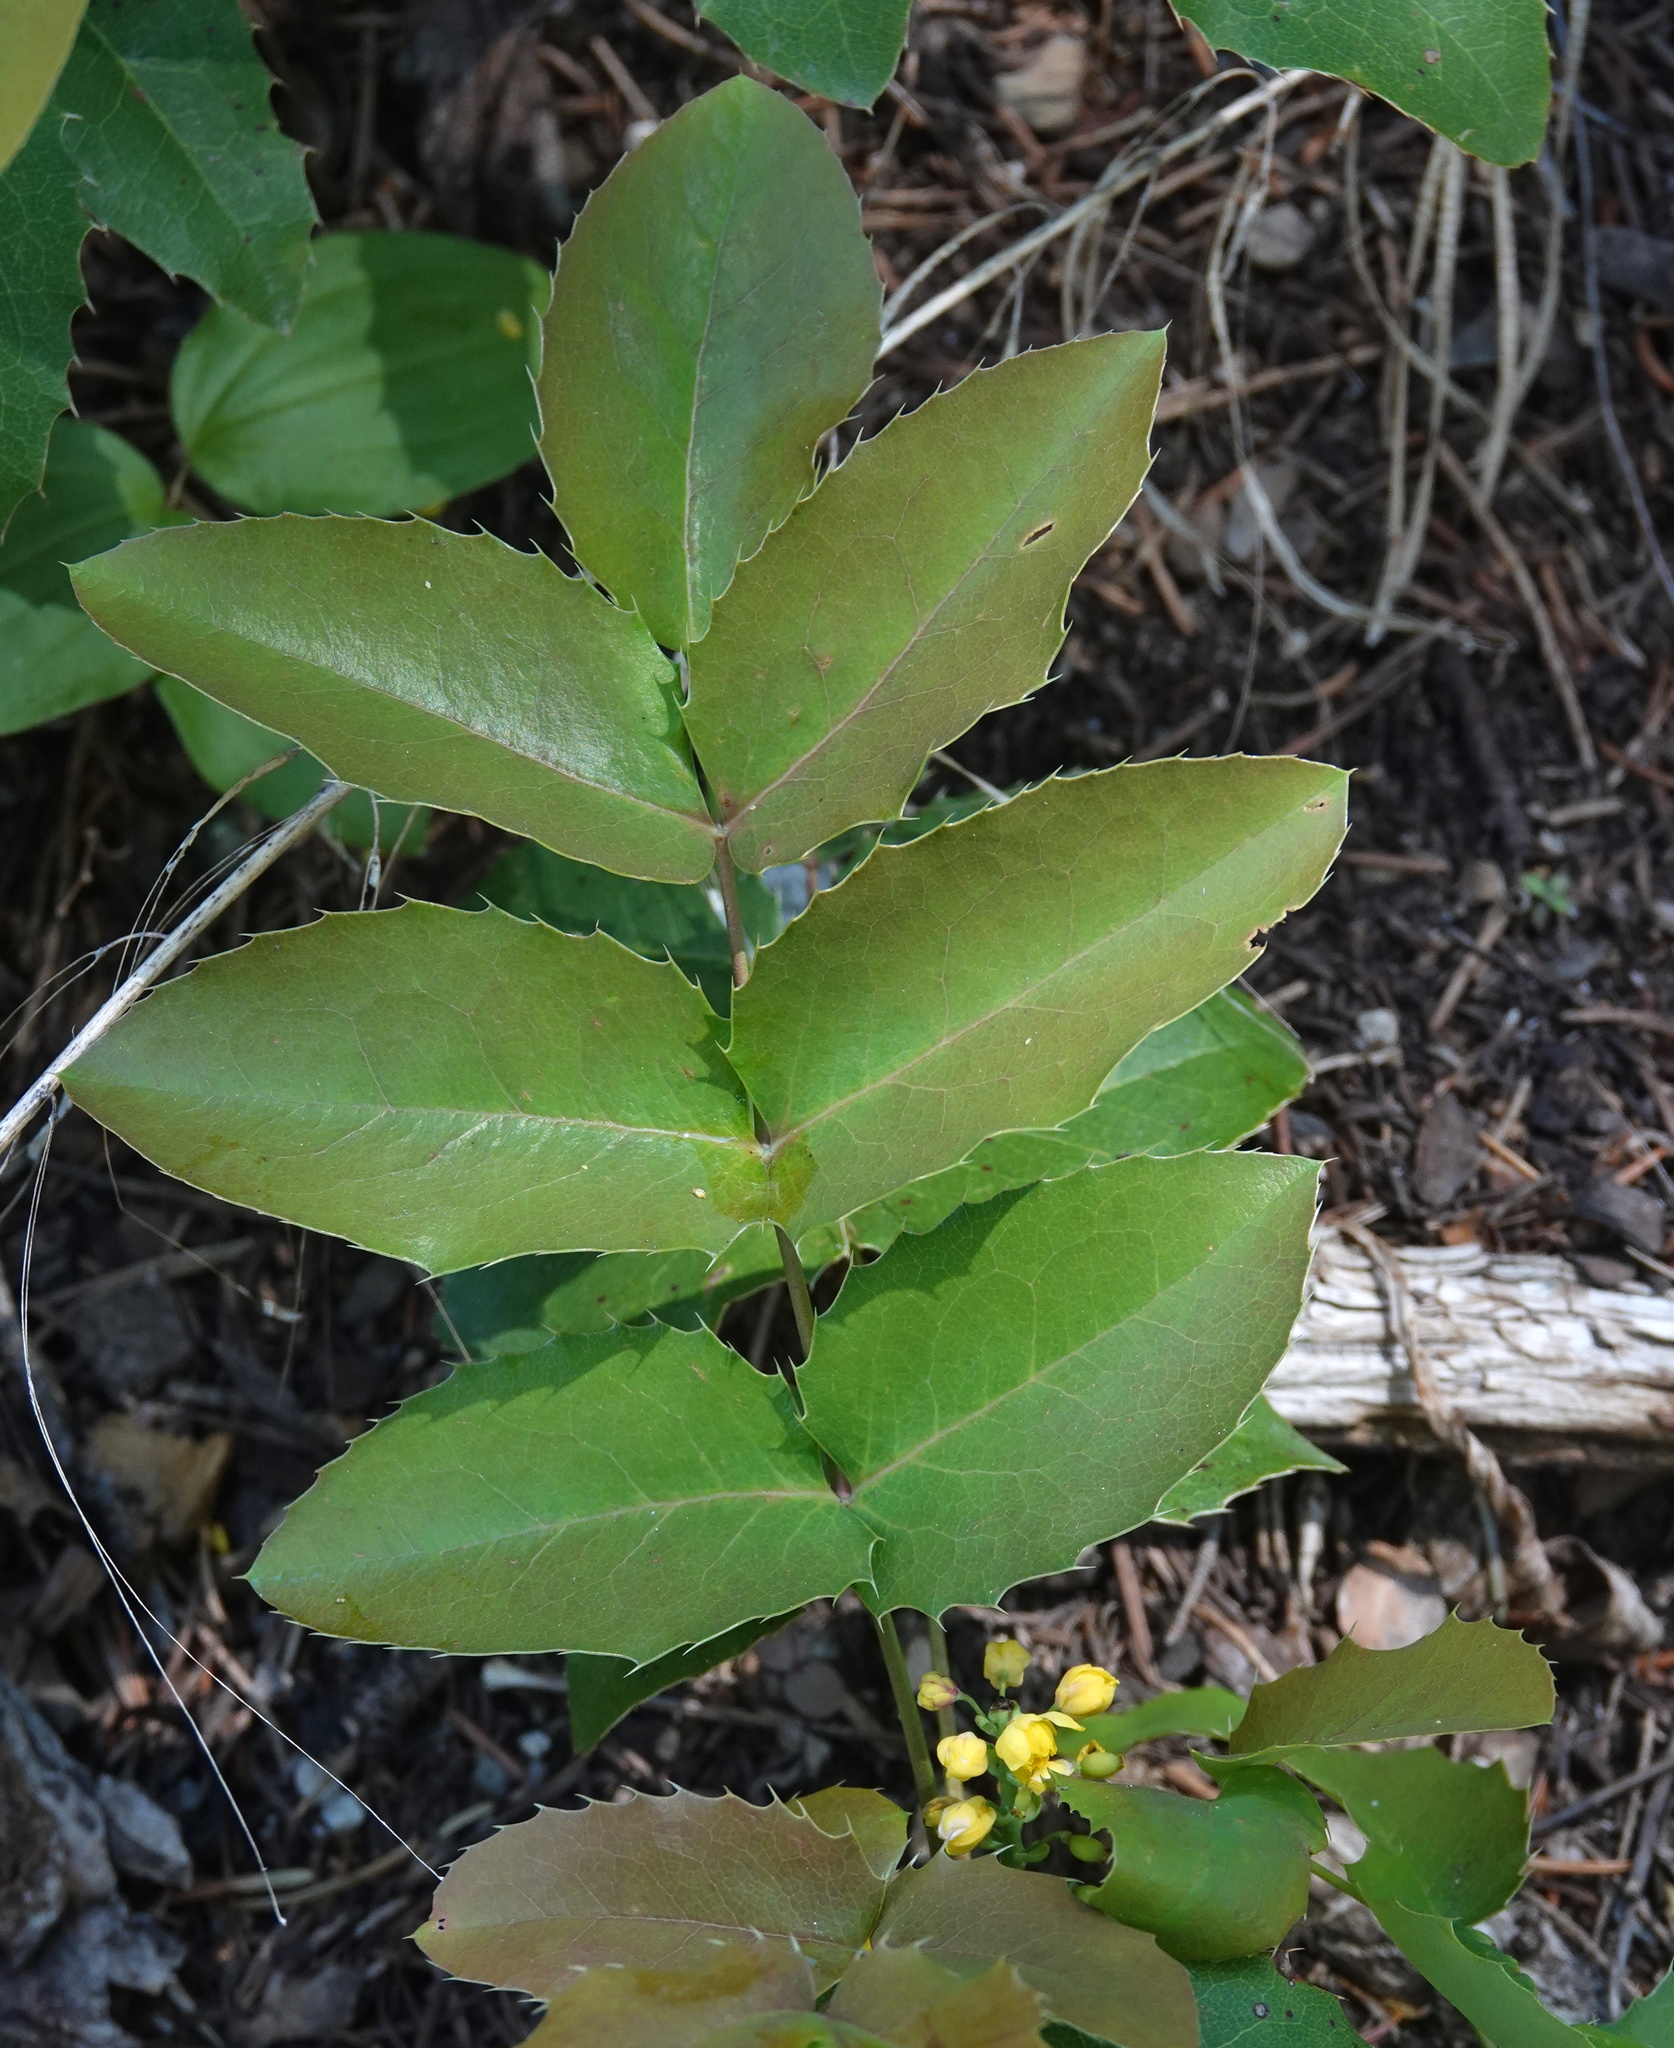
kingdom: Plantae
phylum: Tracheophyta
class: Magnoliopsida
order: Ranunculales
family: Berberidaceae
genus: Mahonia
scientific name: Mahonia repens
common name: Creeping oregon-grape
